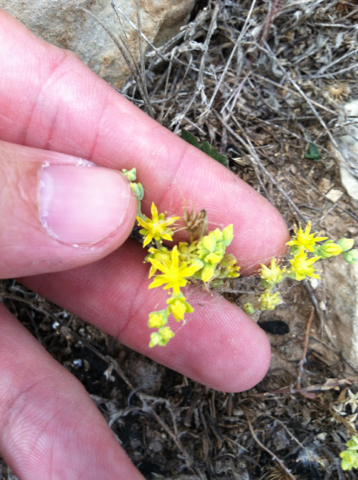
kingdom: Plantae
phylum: Tracheophyta
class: Magnoliopsida
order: Saxifragales
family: Crassulaceae
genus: Sedum
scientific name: Sedum nuttallii
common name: Yellow stonecrop
